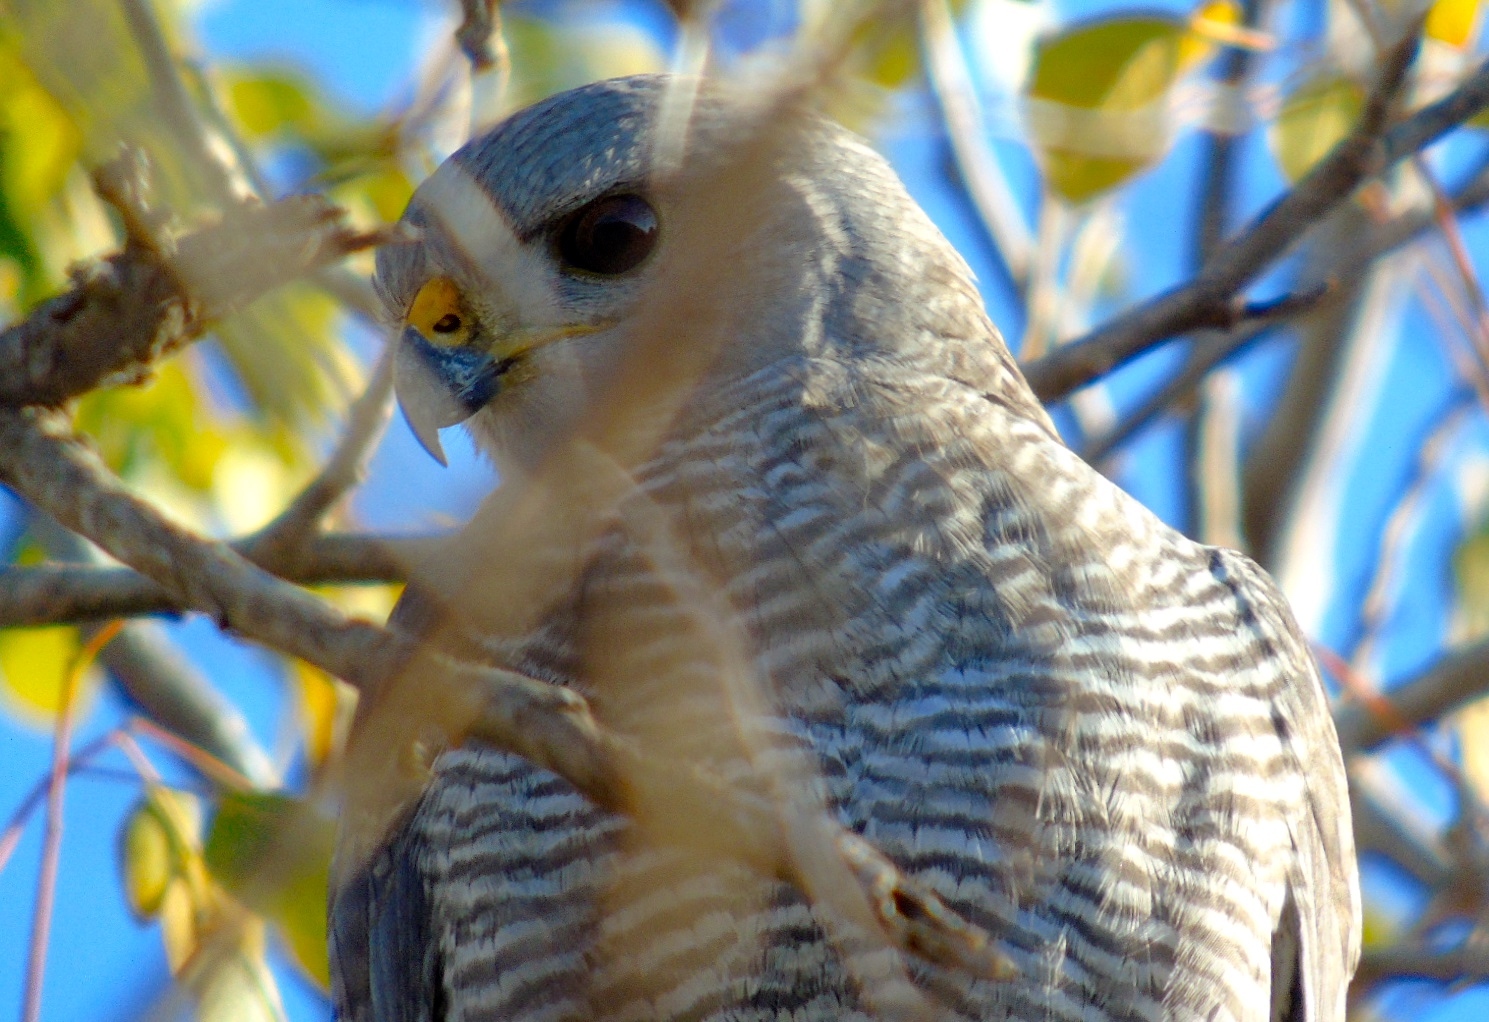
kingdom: Animalia
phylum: Chordata
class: Aves
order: Accipitriformes
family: Accipitridae
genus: Buteo
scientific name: Buteo nitidus
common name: Grey-lined hawk
